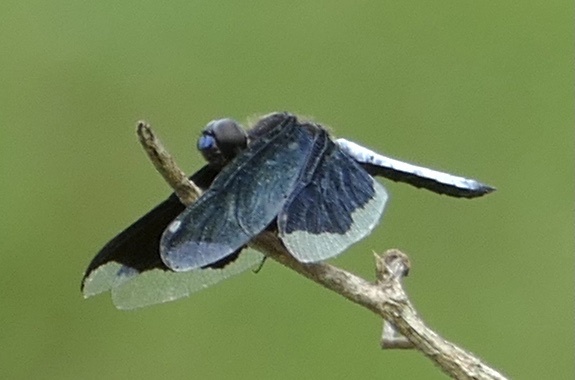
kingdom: Animalia
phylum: Arthropoda
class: Insecta
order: Odonata
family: Libellulidae
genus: Palpopleura
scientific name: Palpopleura lucia
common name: Lucia widow
